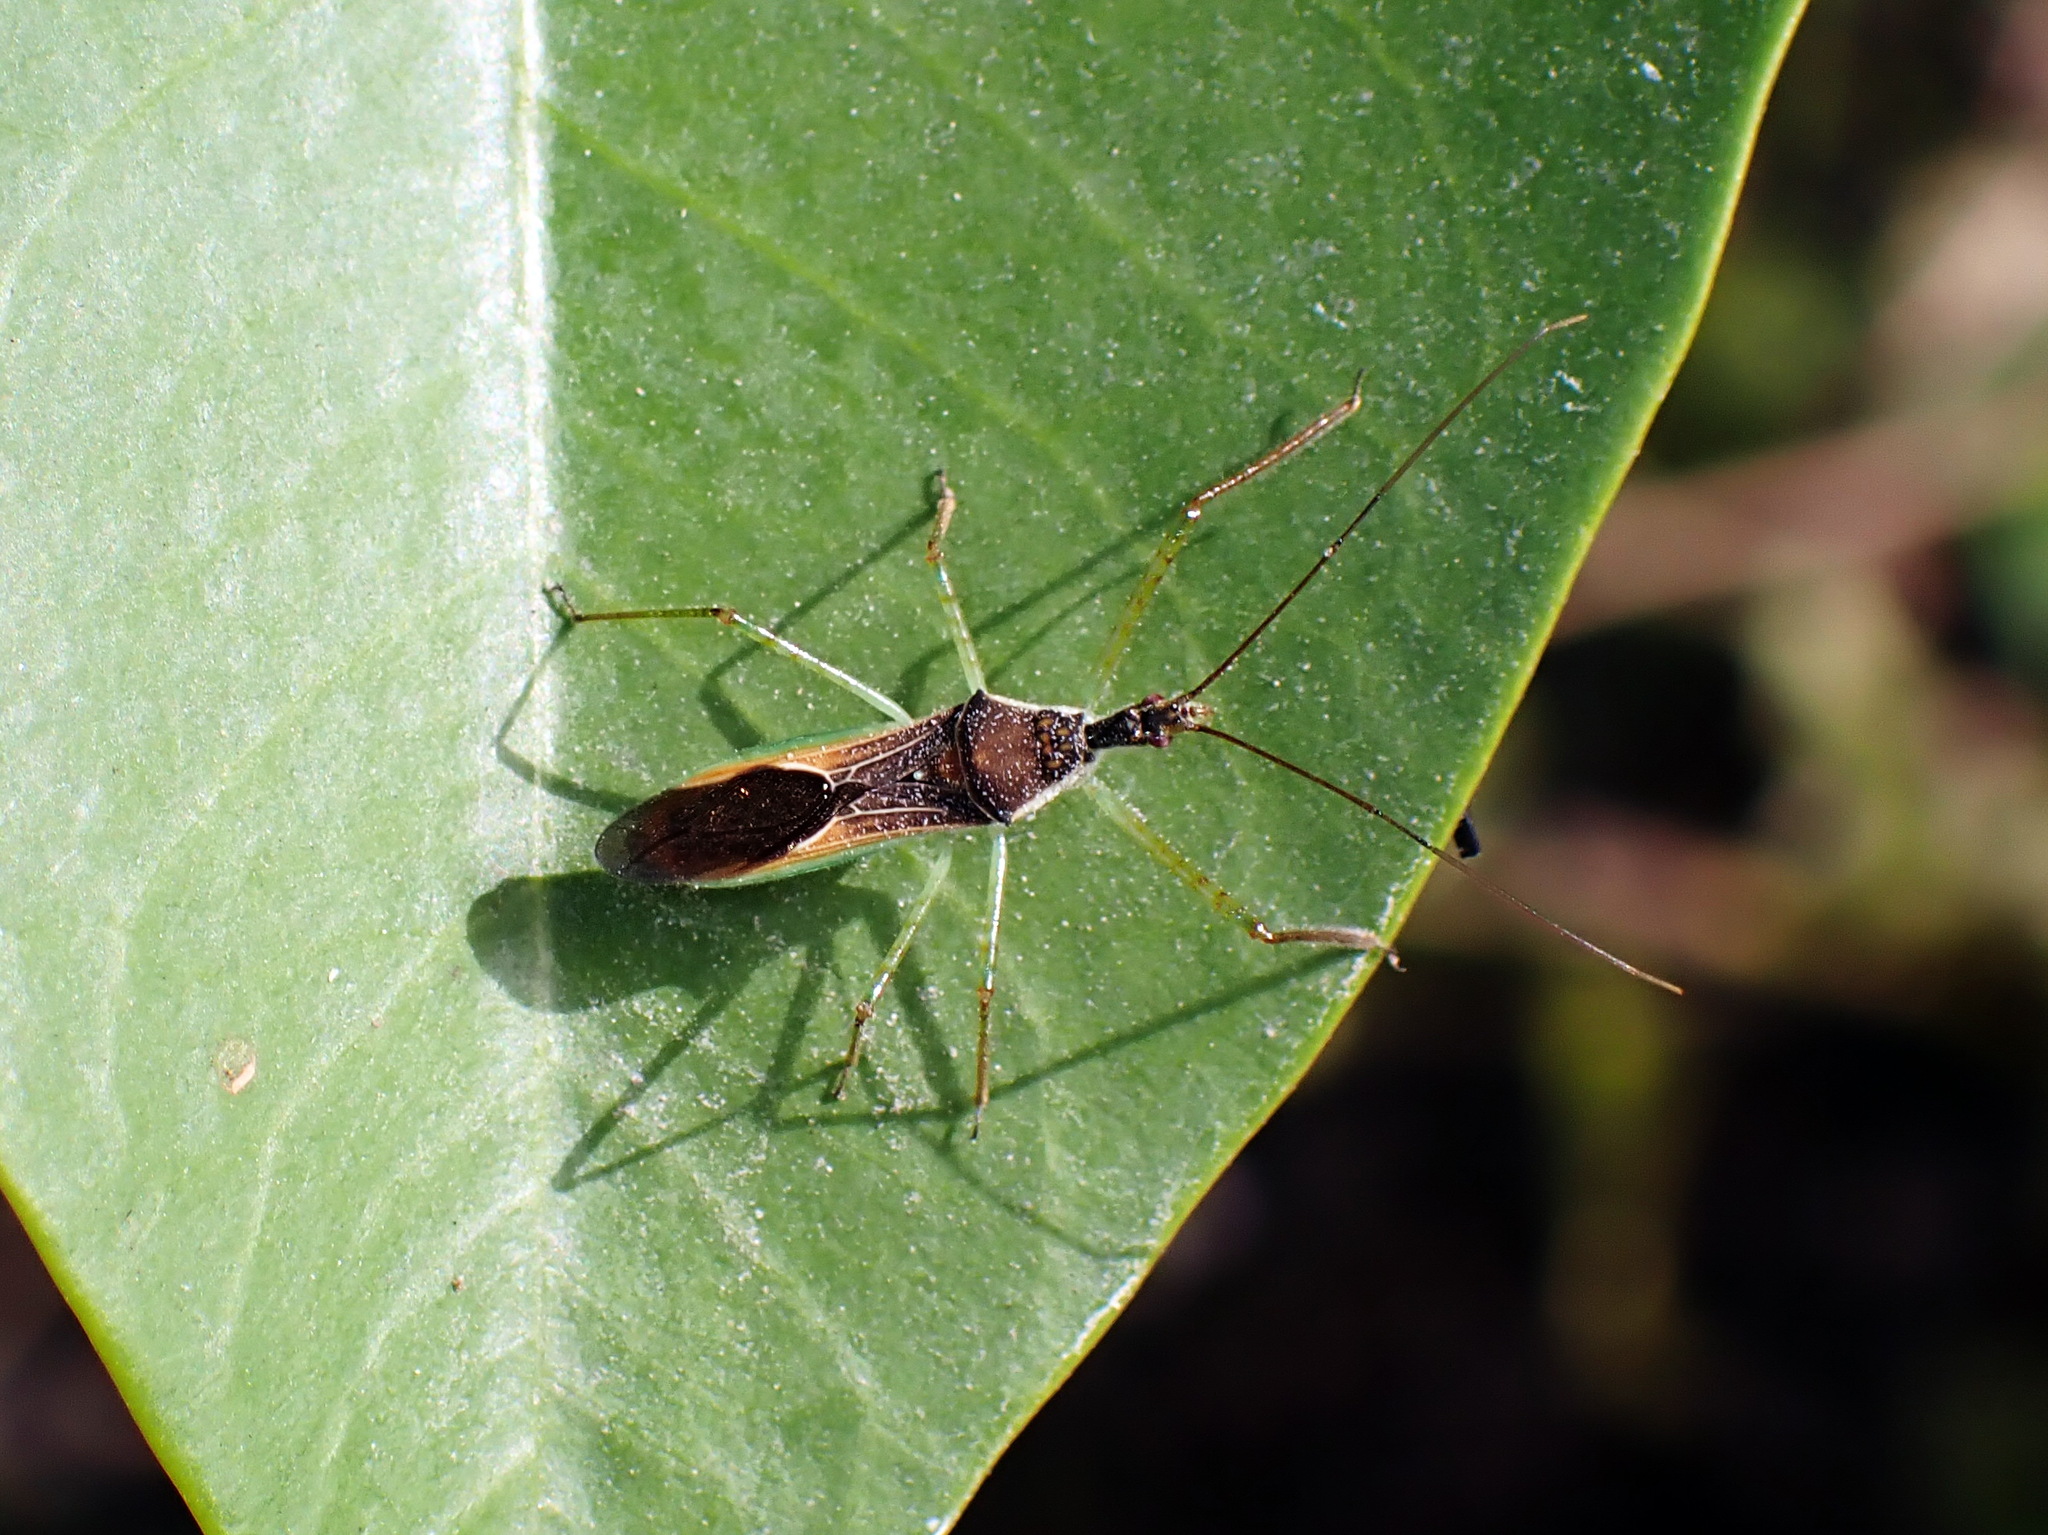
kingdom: Animalia
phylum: Arthropoda
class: Insecta
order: Hemiptera
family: Reduviidae
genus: Zelus
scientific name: Zelus renardii
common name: Assassin bug
